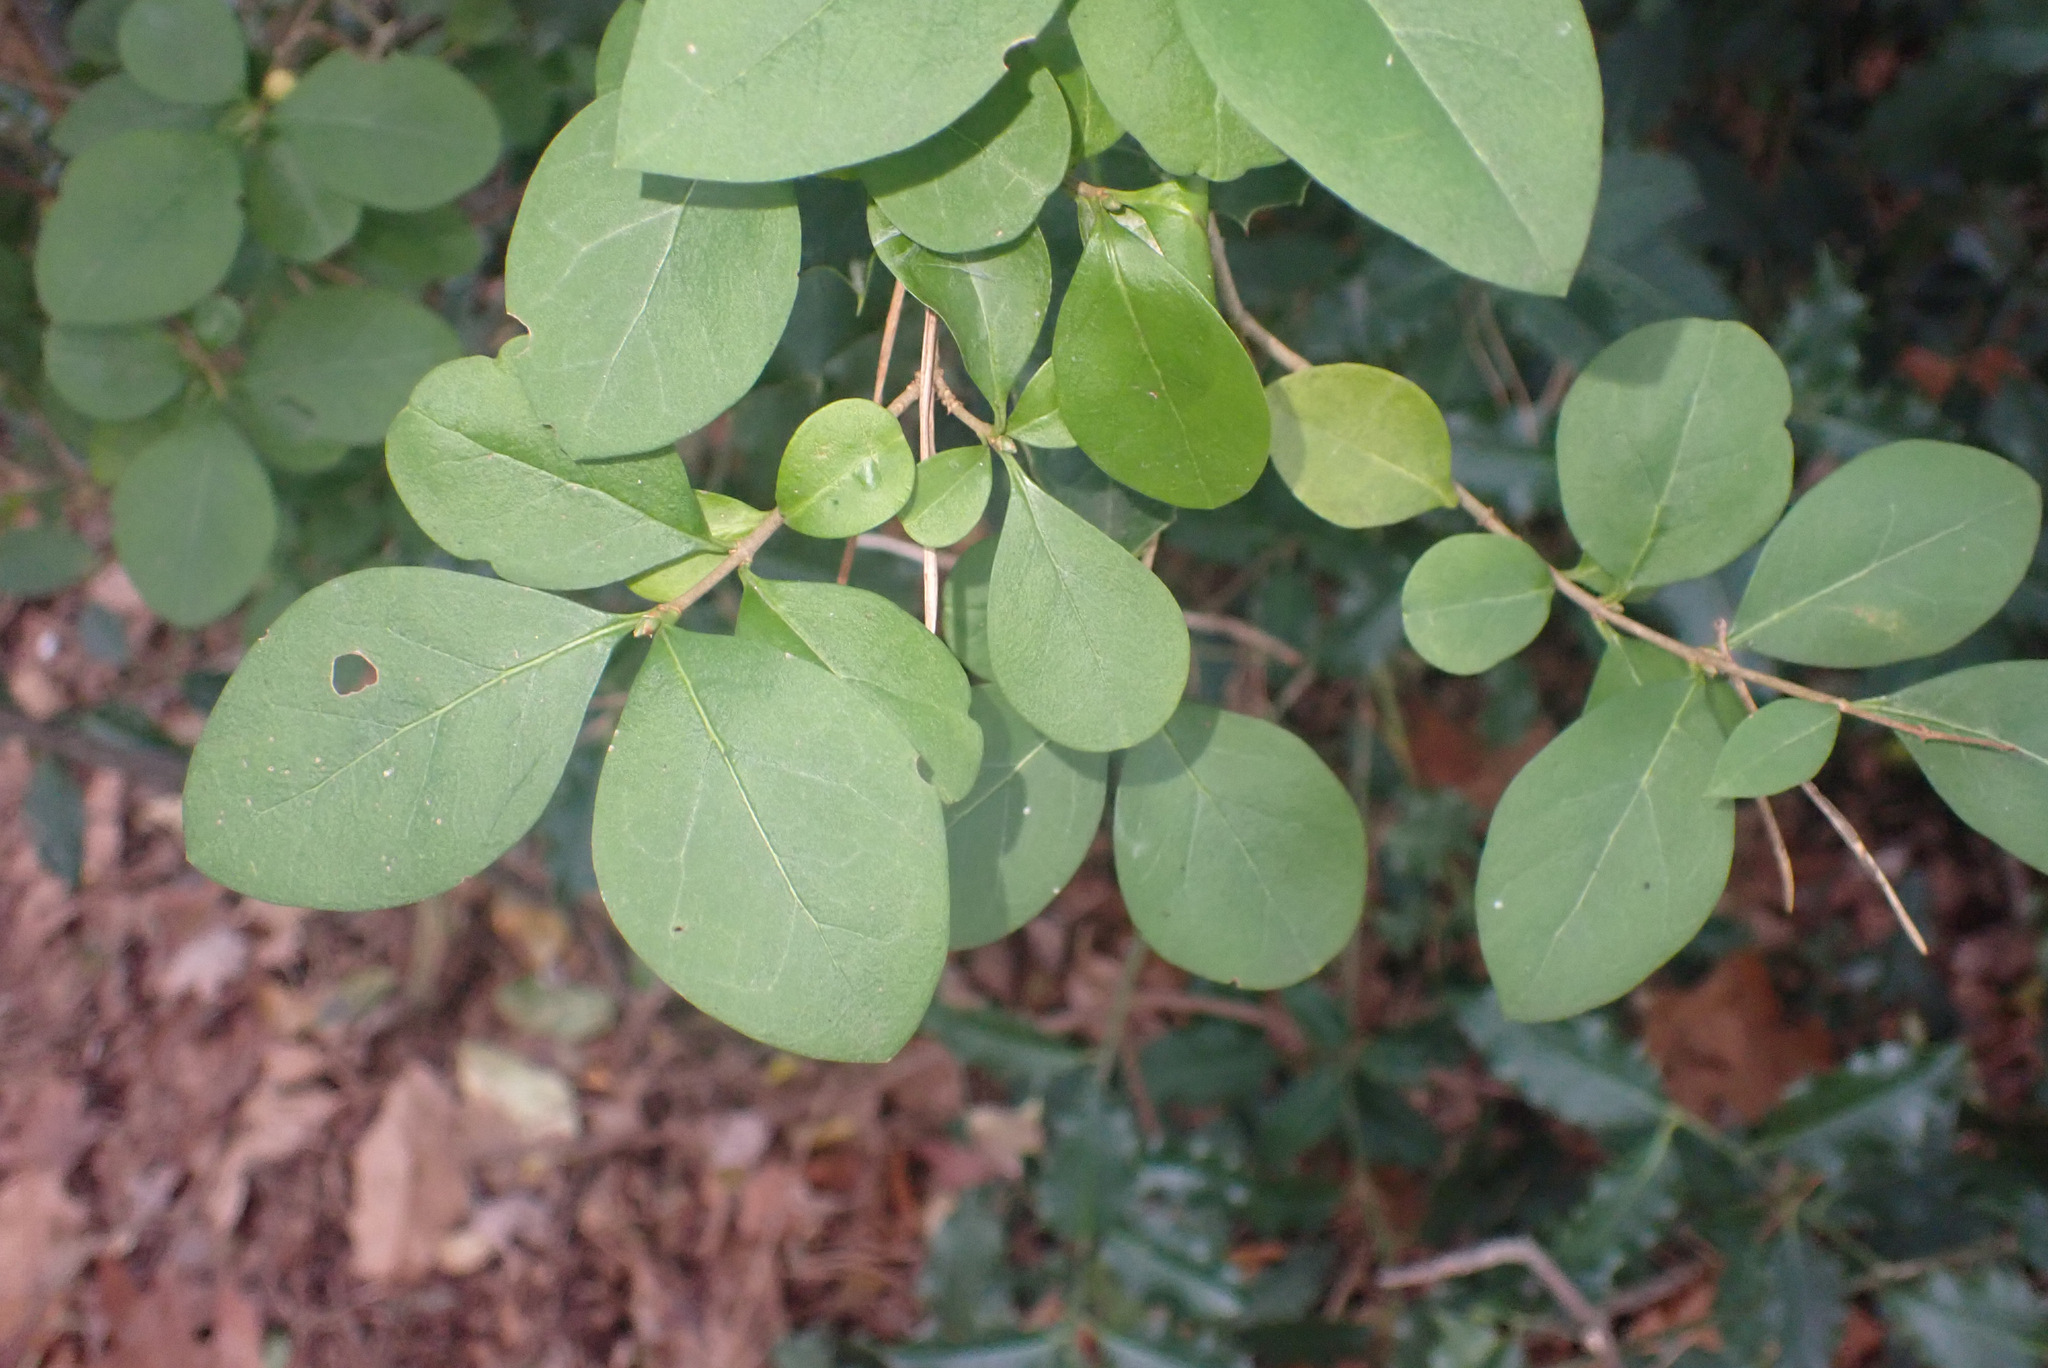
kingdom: Plantae
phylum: Tracheophyta
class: Magnoliopsida
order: Lamiales
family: Oleaceae
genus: Ligustrum
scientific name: Ligustrum ovalifolium
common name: California privet
